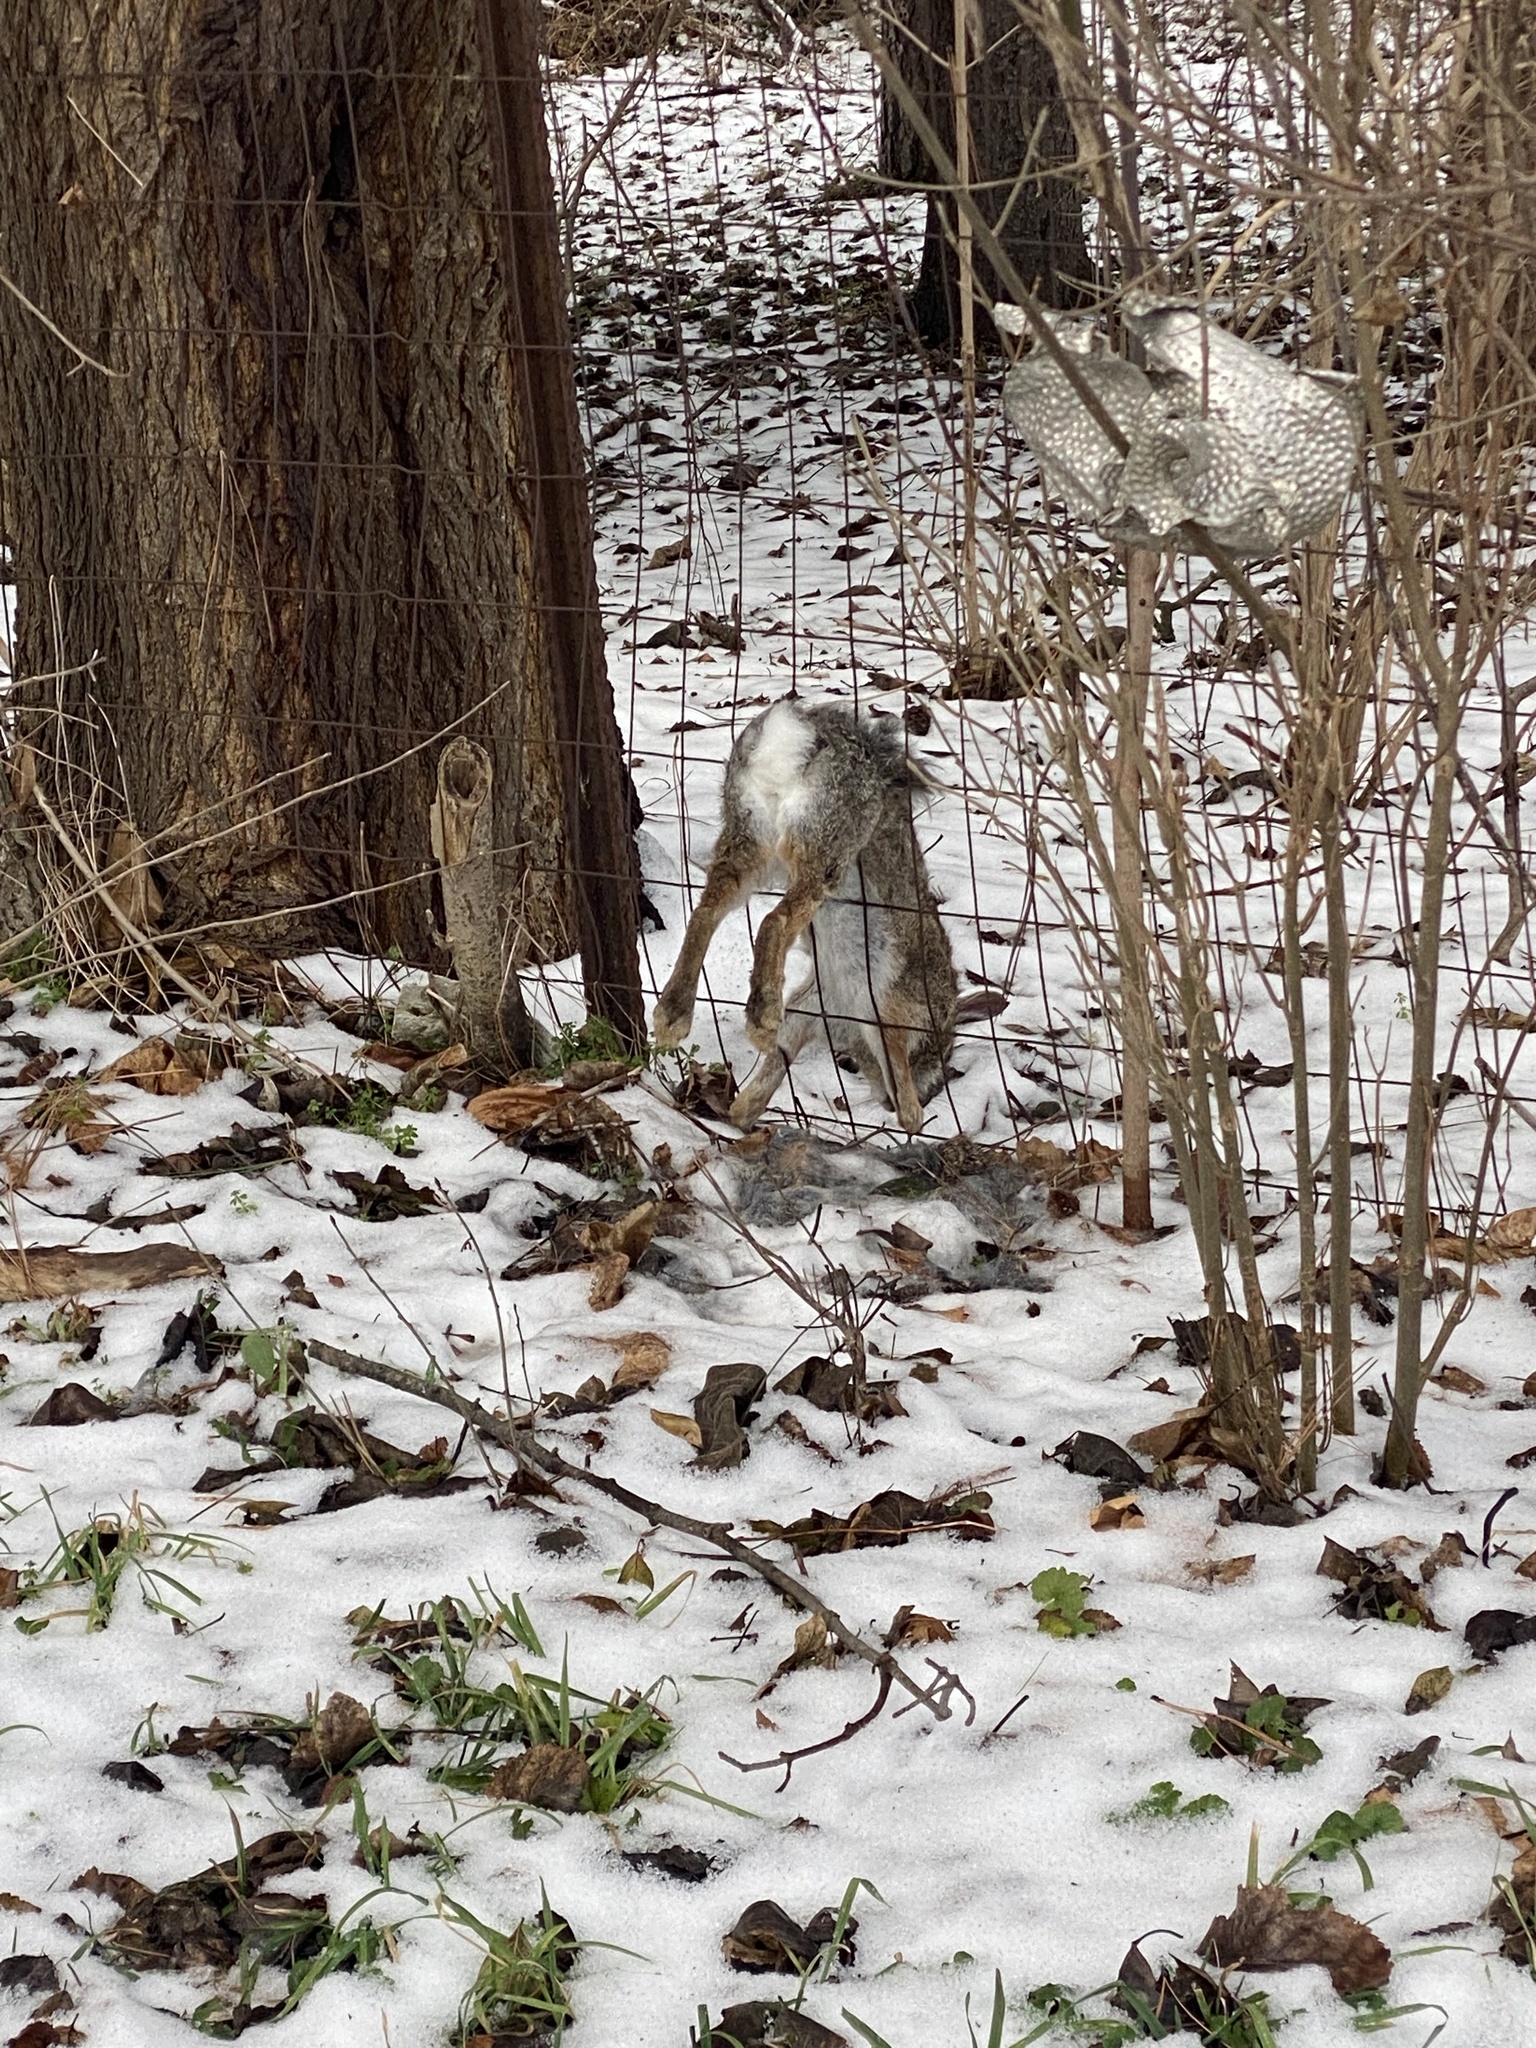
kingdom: Animalia
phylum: Chordata
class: Mammalia
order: Lagomorpha
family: Leporidae
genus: Sylvilagus
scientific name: Sylvilagus floridanus
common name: Eastern cottontail
